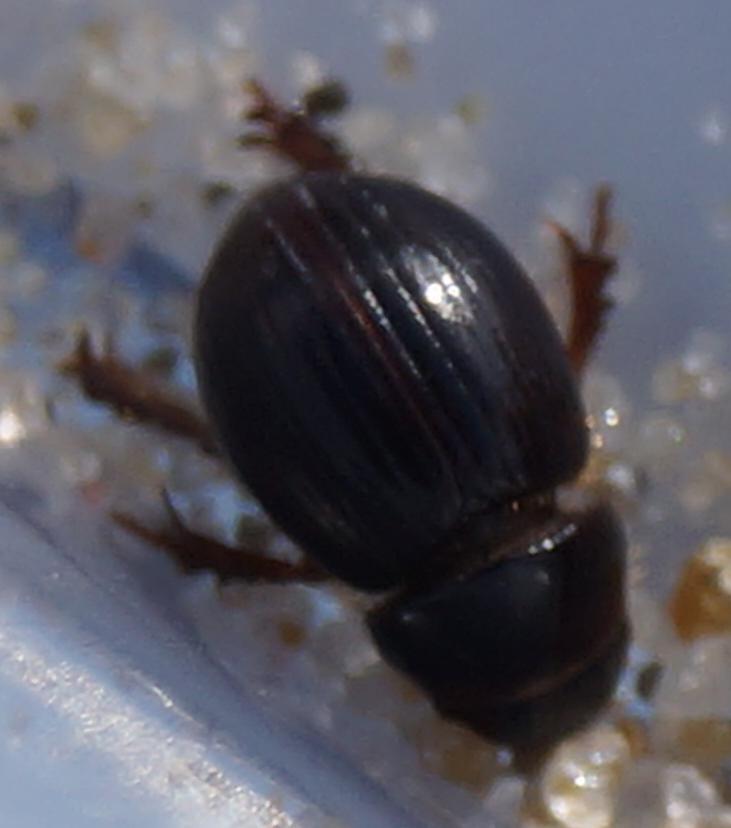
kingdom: Animalia
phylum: Arthropoda
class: Insecta
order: Coleoptera
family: Scarabaeidae
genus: Aegialia
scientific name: Aegialia arenaria
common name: Dune sand scarab beetle
